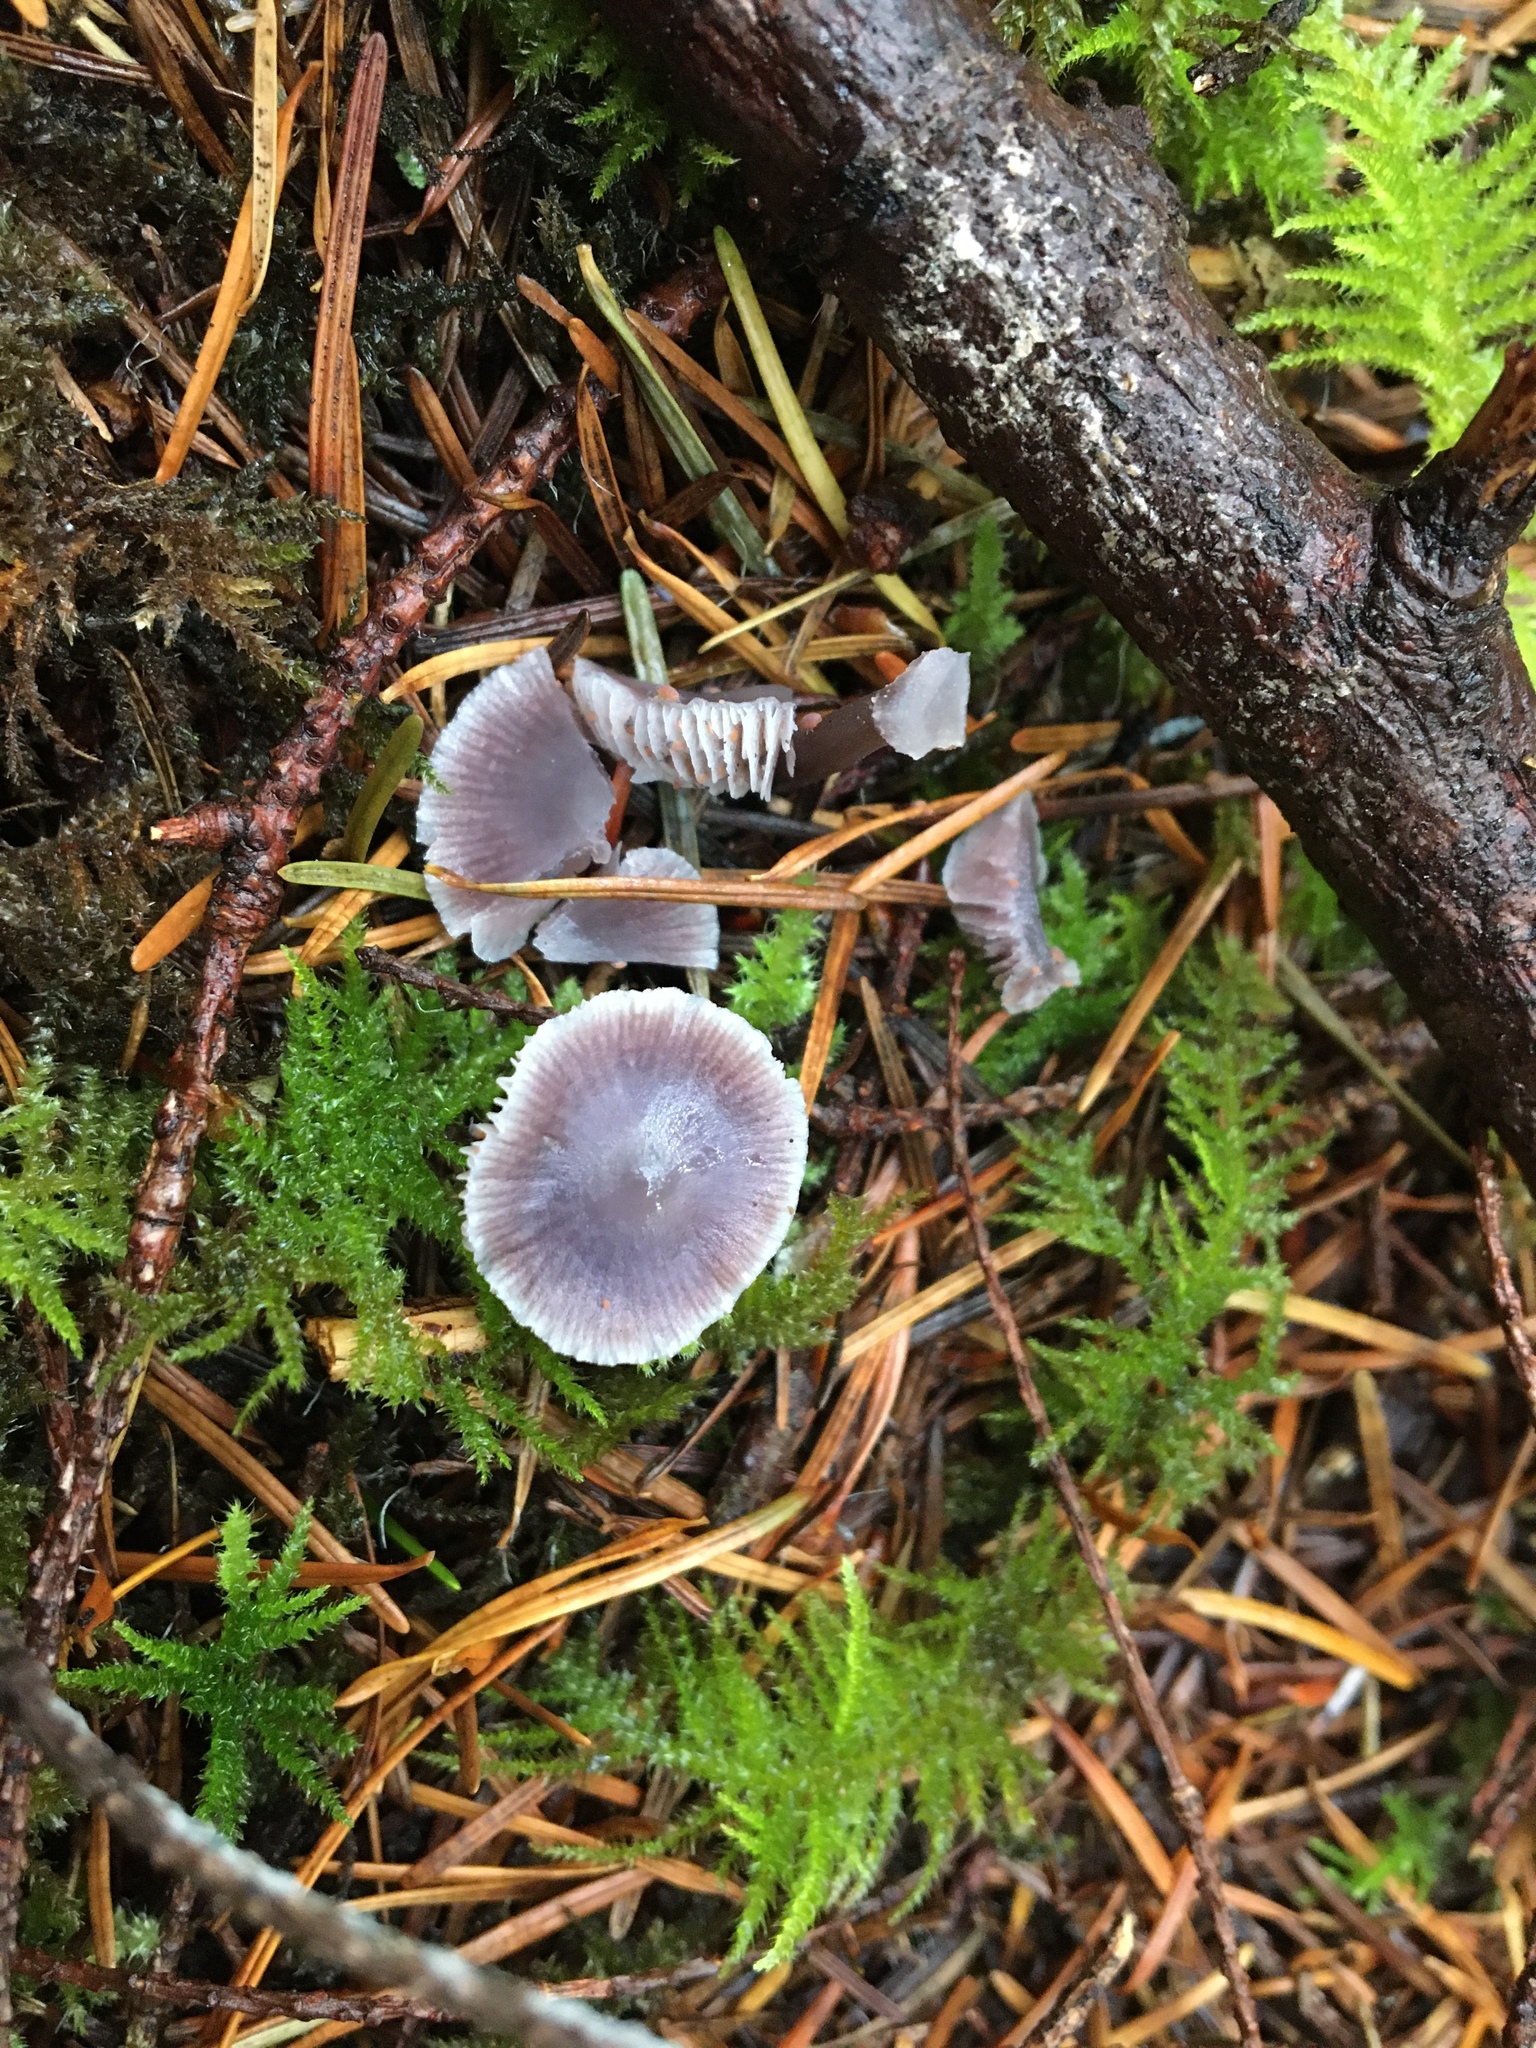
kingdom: Fungi
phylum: Basidiomycota
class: Agaricomycetes
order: Agaricales
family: Mycenaceae
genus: Mycena
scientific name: Mycena pura
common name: Lilac bonnet
